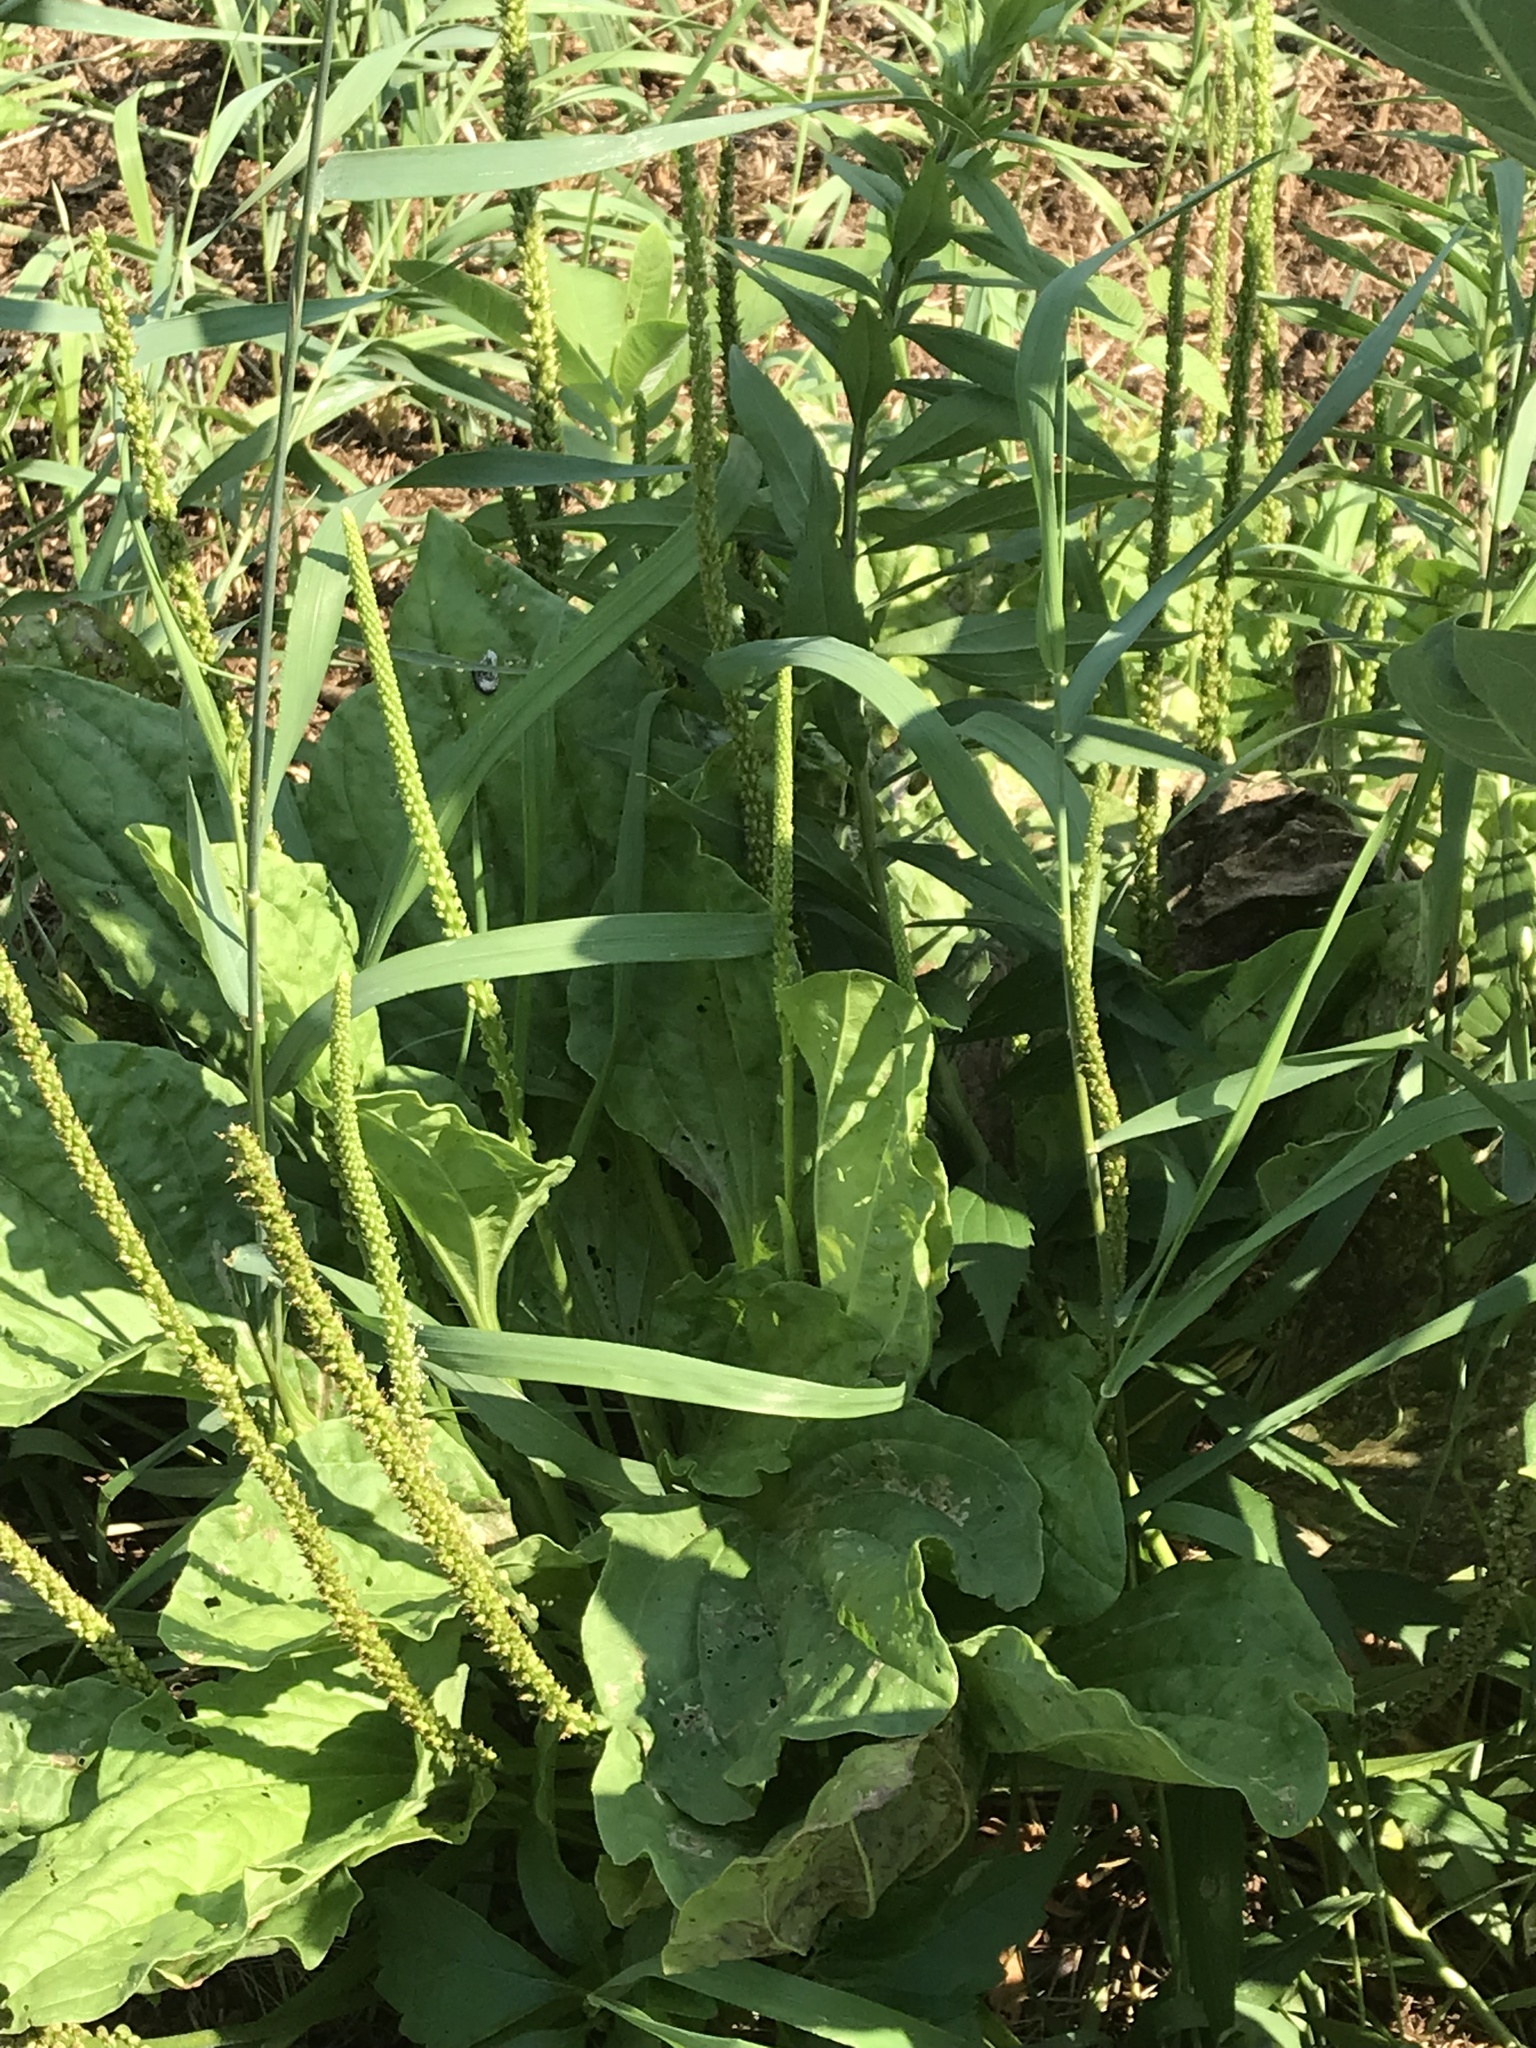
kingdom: Plantae
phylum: Tracheophyta
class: Magnoliopsida
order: Lamiales
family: Plantaginaceae
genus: Plantago
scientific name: Plantago major
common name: Common plantain
